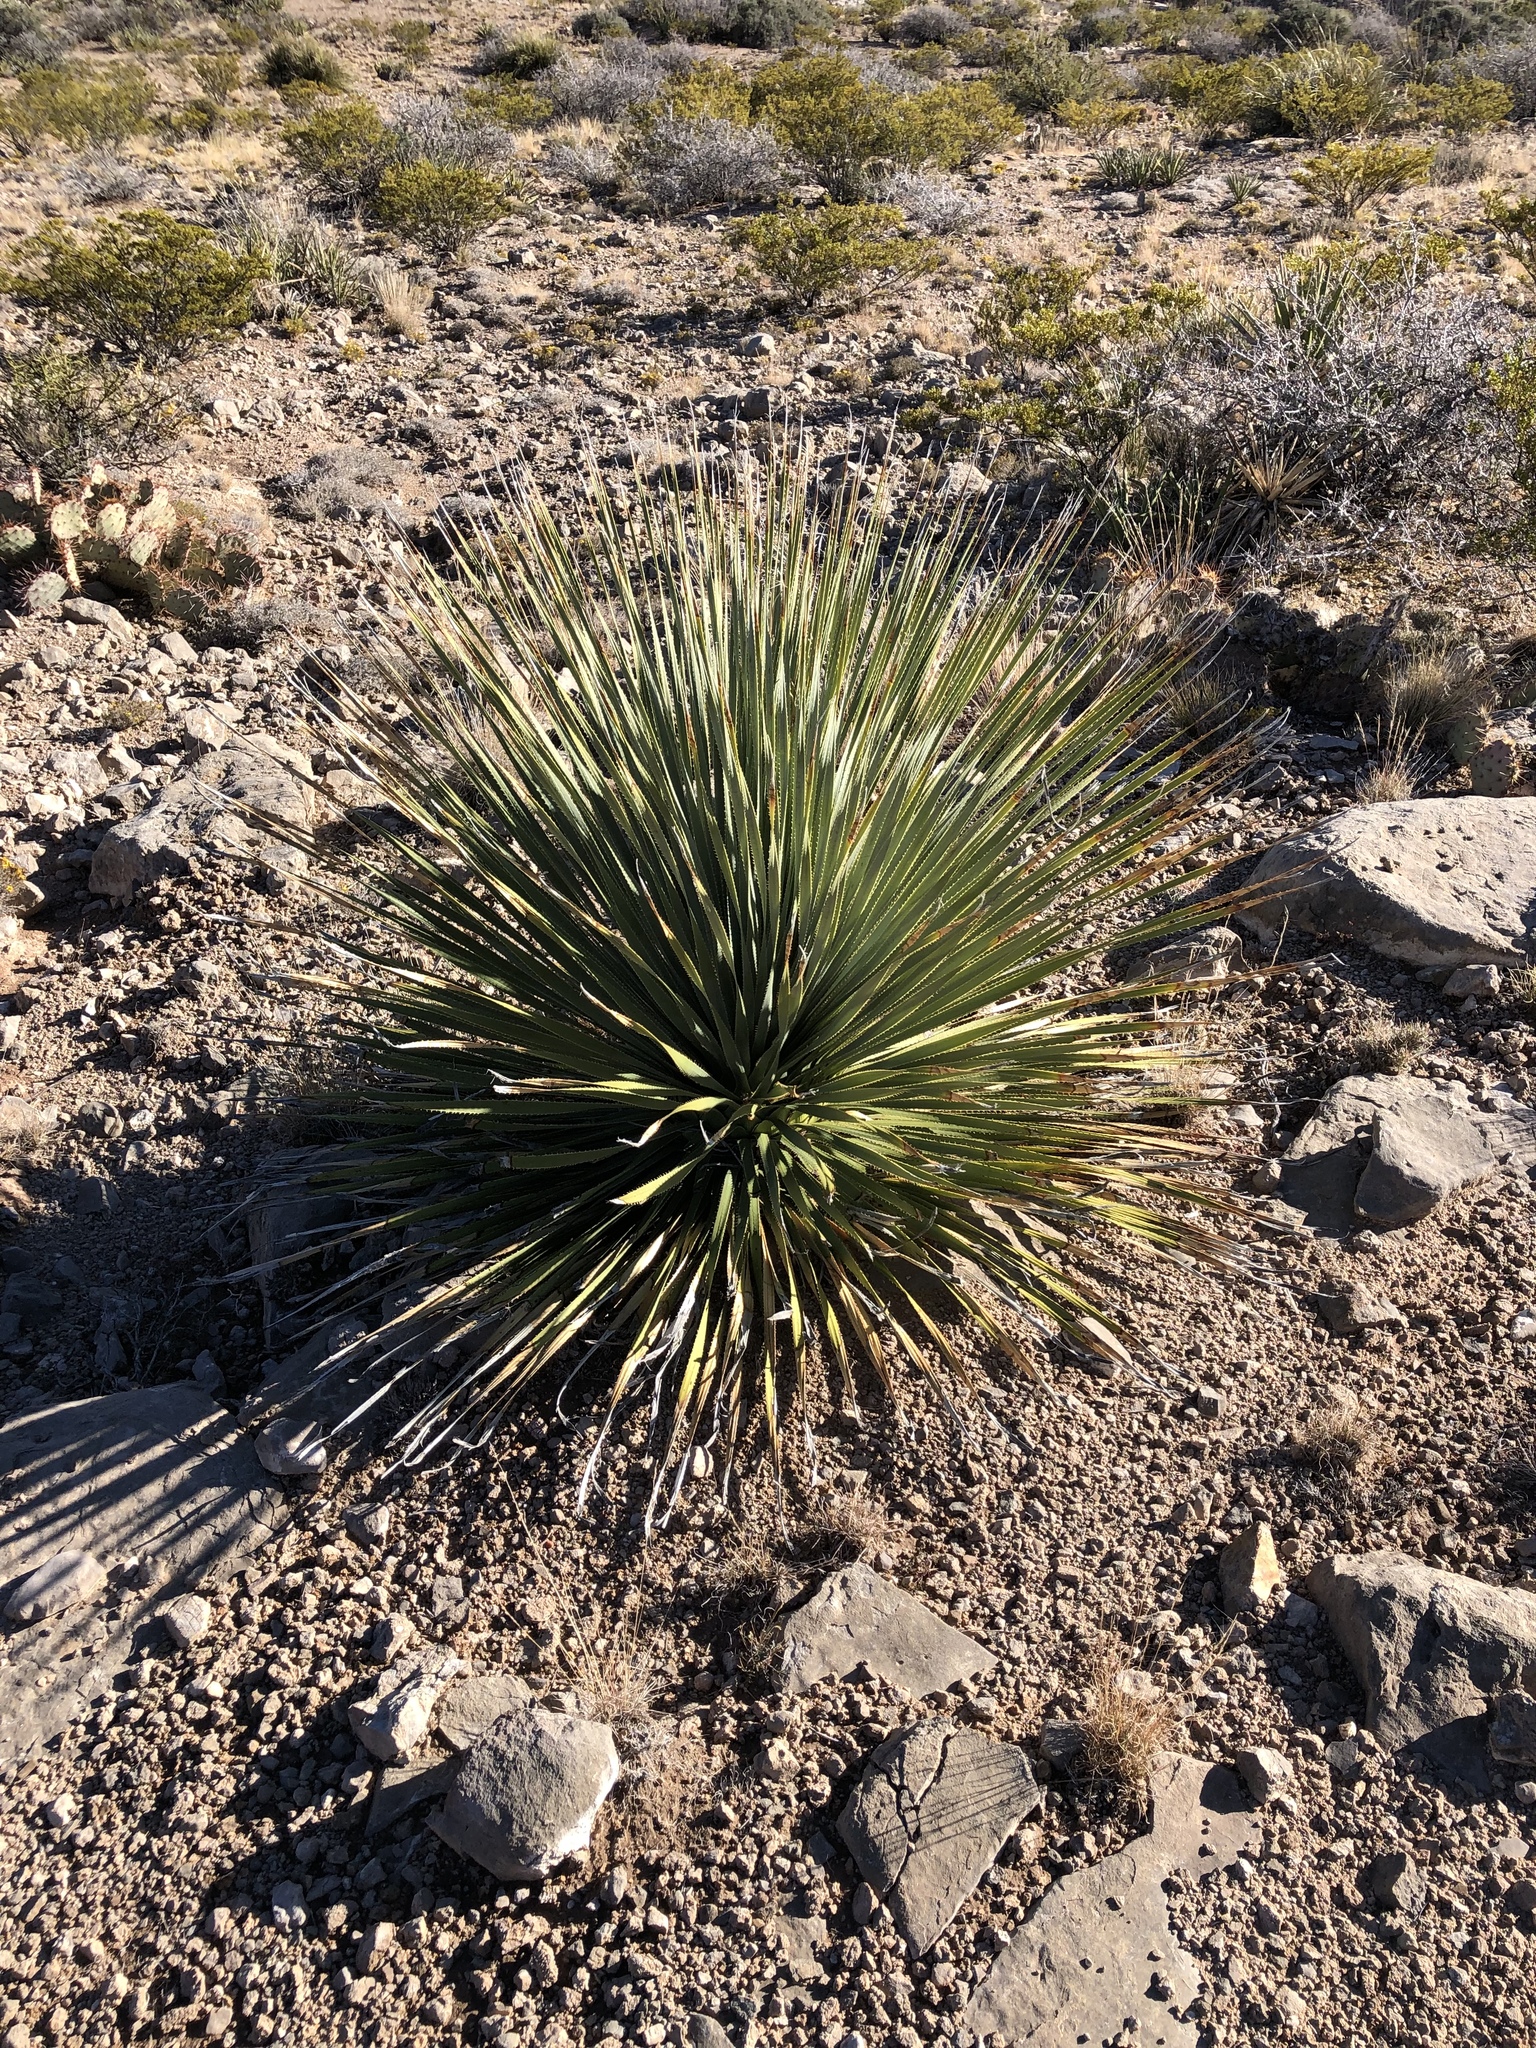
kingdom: Plantae
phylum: Tracheophyta
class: Liliopsida
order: Asparagales
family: Asparagaceae
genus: Dasylirion
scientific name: Dasylirion wheeleri
